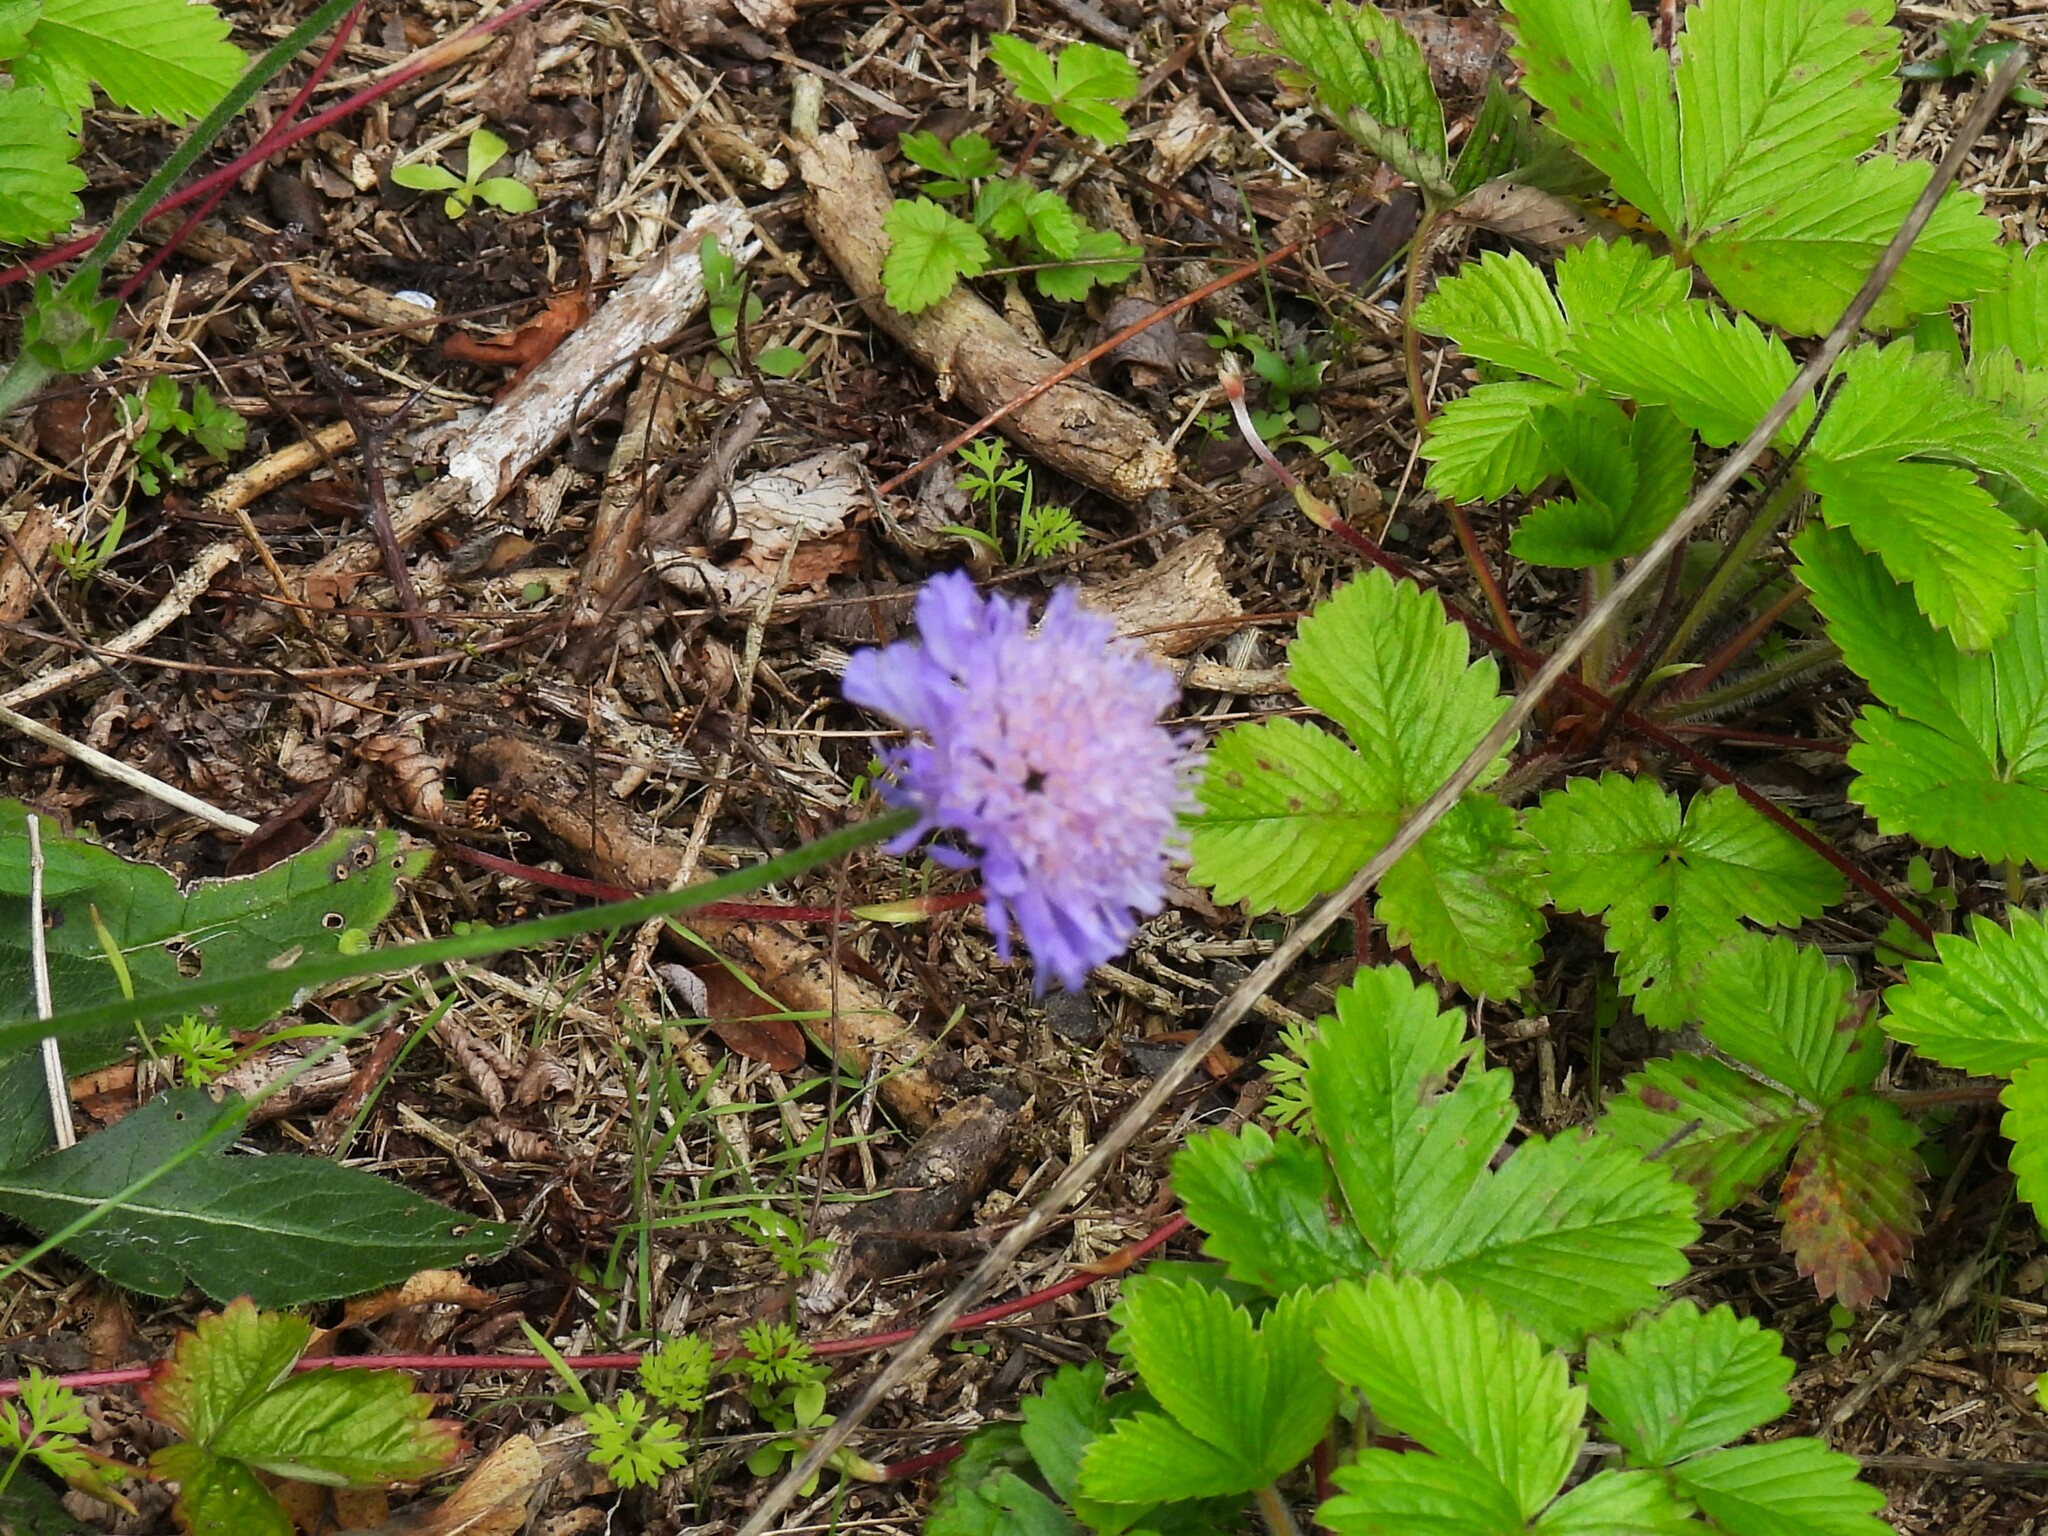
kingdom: Plantae
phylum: Tracheophyta
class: Magnoliopsida
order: Dipsacales
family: Caprifoliaceae
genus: Knautia
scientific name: Knautia arvensis
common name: Field scabiosa
